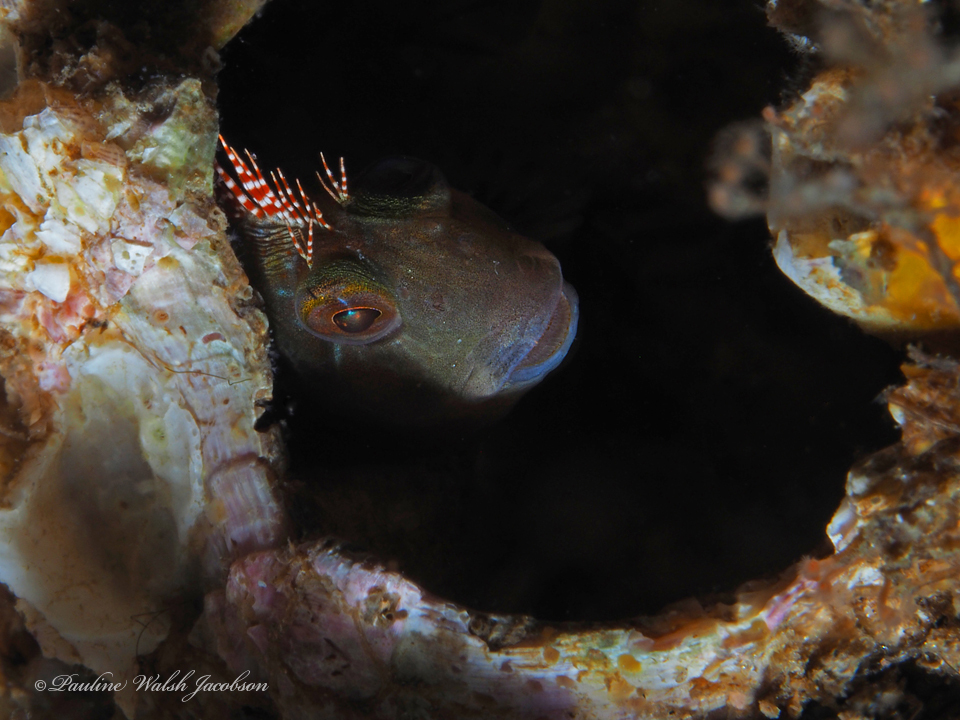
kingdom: Animalia
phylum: Chordata
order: Perciformes
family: Blenniidae
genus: Scartella
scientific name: Scartella cristata
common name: Molly miller
